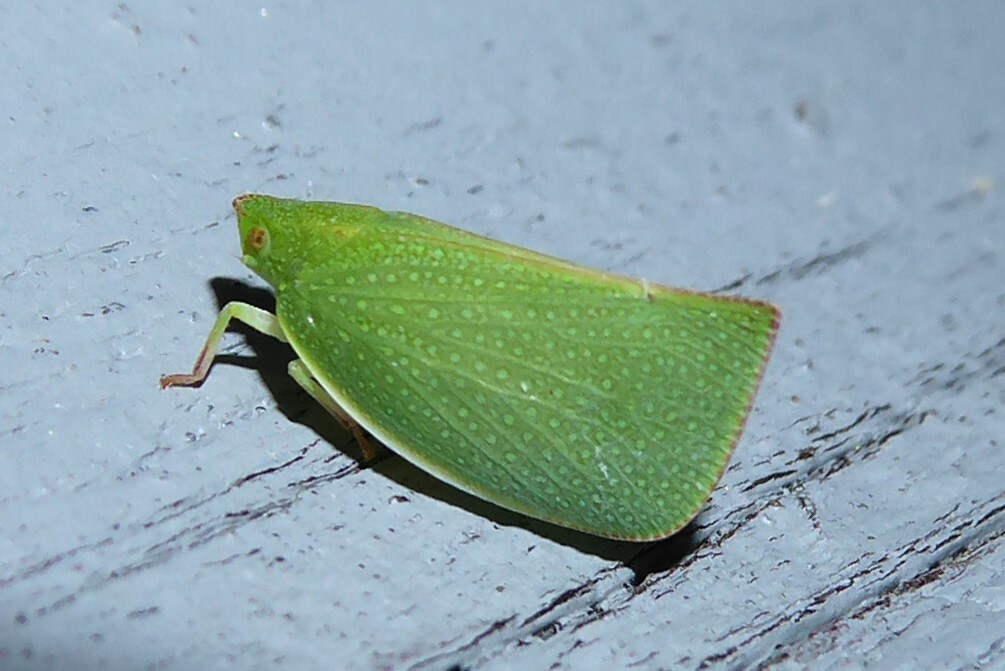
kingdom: Animalia
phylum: Arthropoda
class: Insecta
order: Hemiptera
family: Flatidae
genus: Siphanta
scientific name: Siphanta acuta
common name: Torpedo bug
